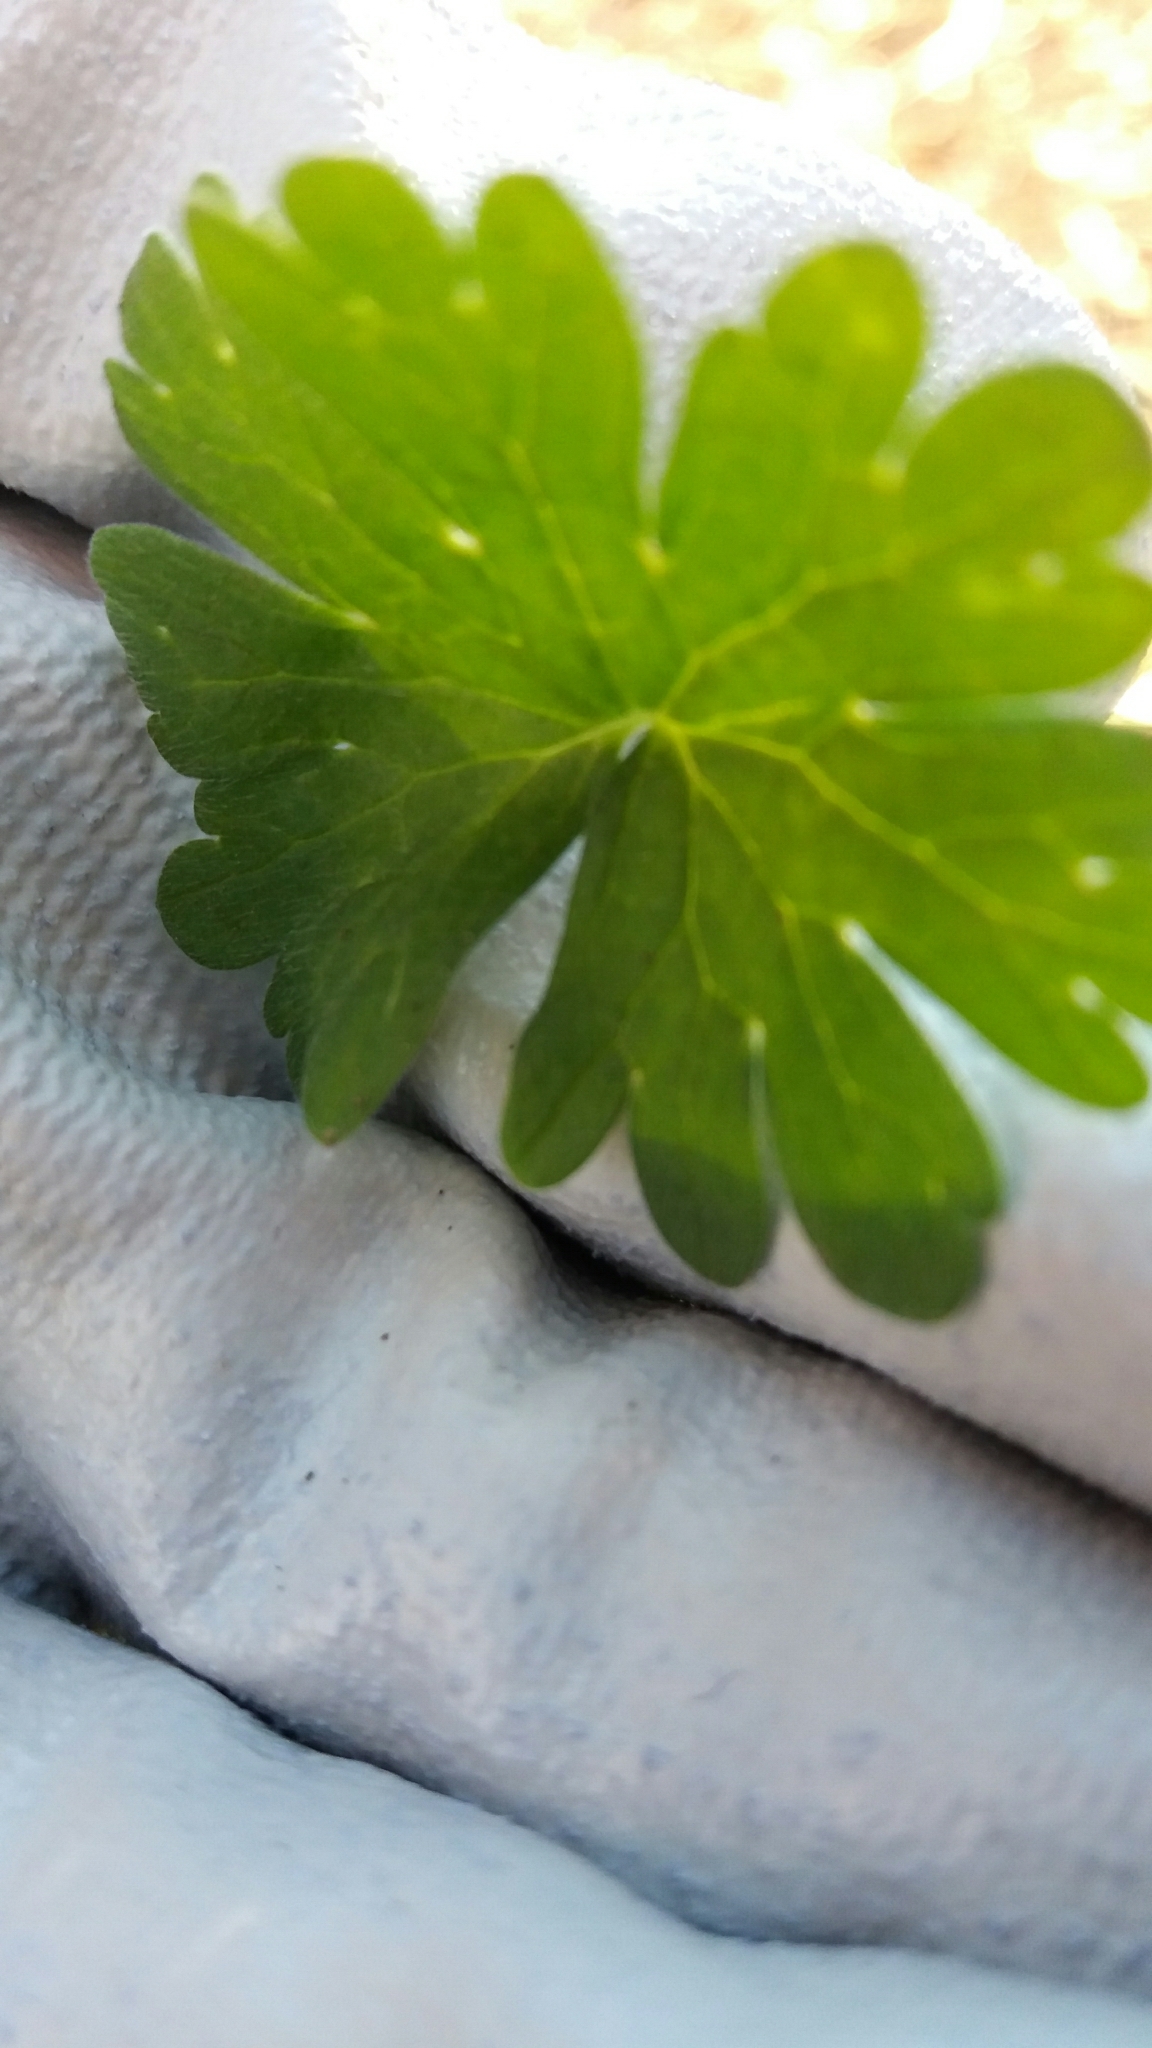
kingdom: Plantae
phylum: Tracheophyta
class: Magnoliopsida
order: Geraniales
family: Geraniaceae
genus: Geranium
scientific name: Geranium molle
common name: Dove's-foot crane's-bill
